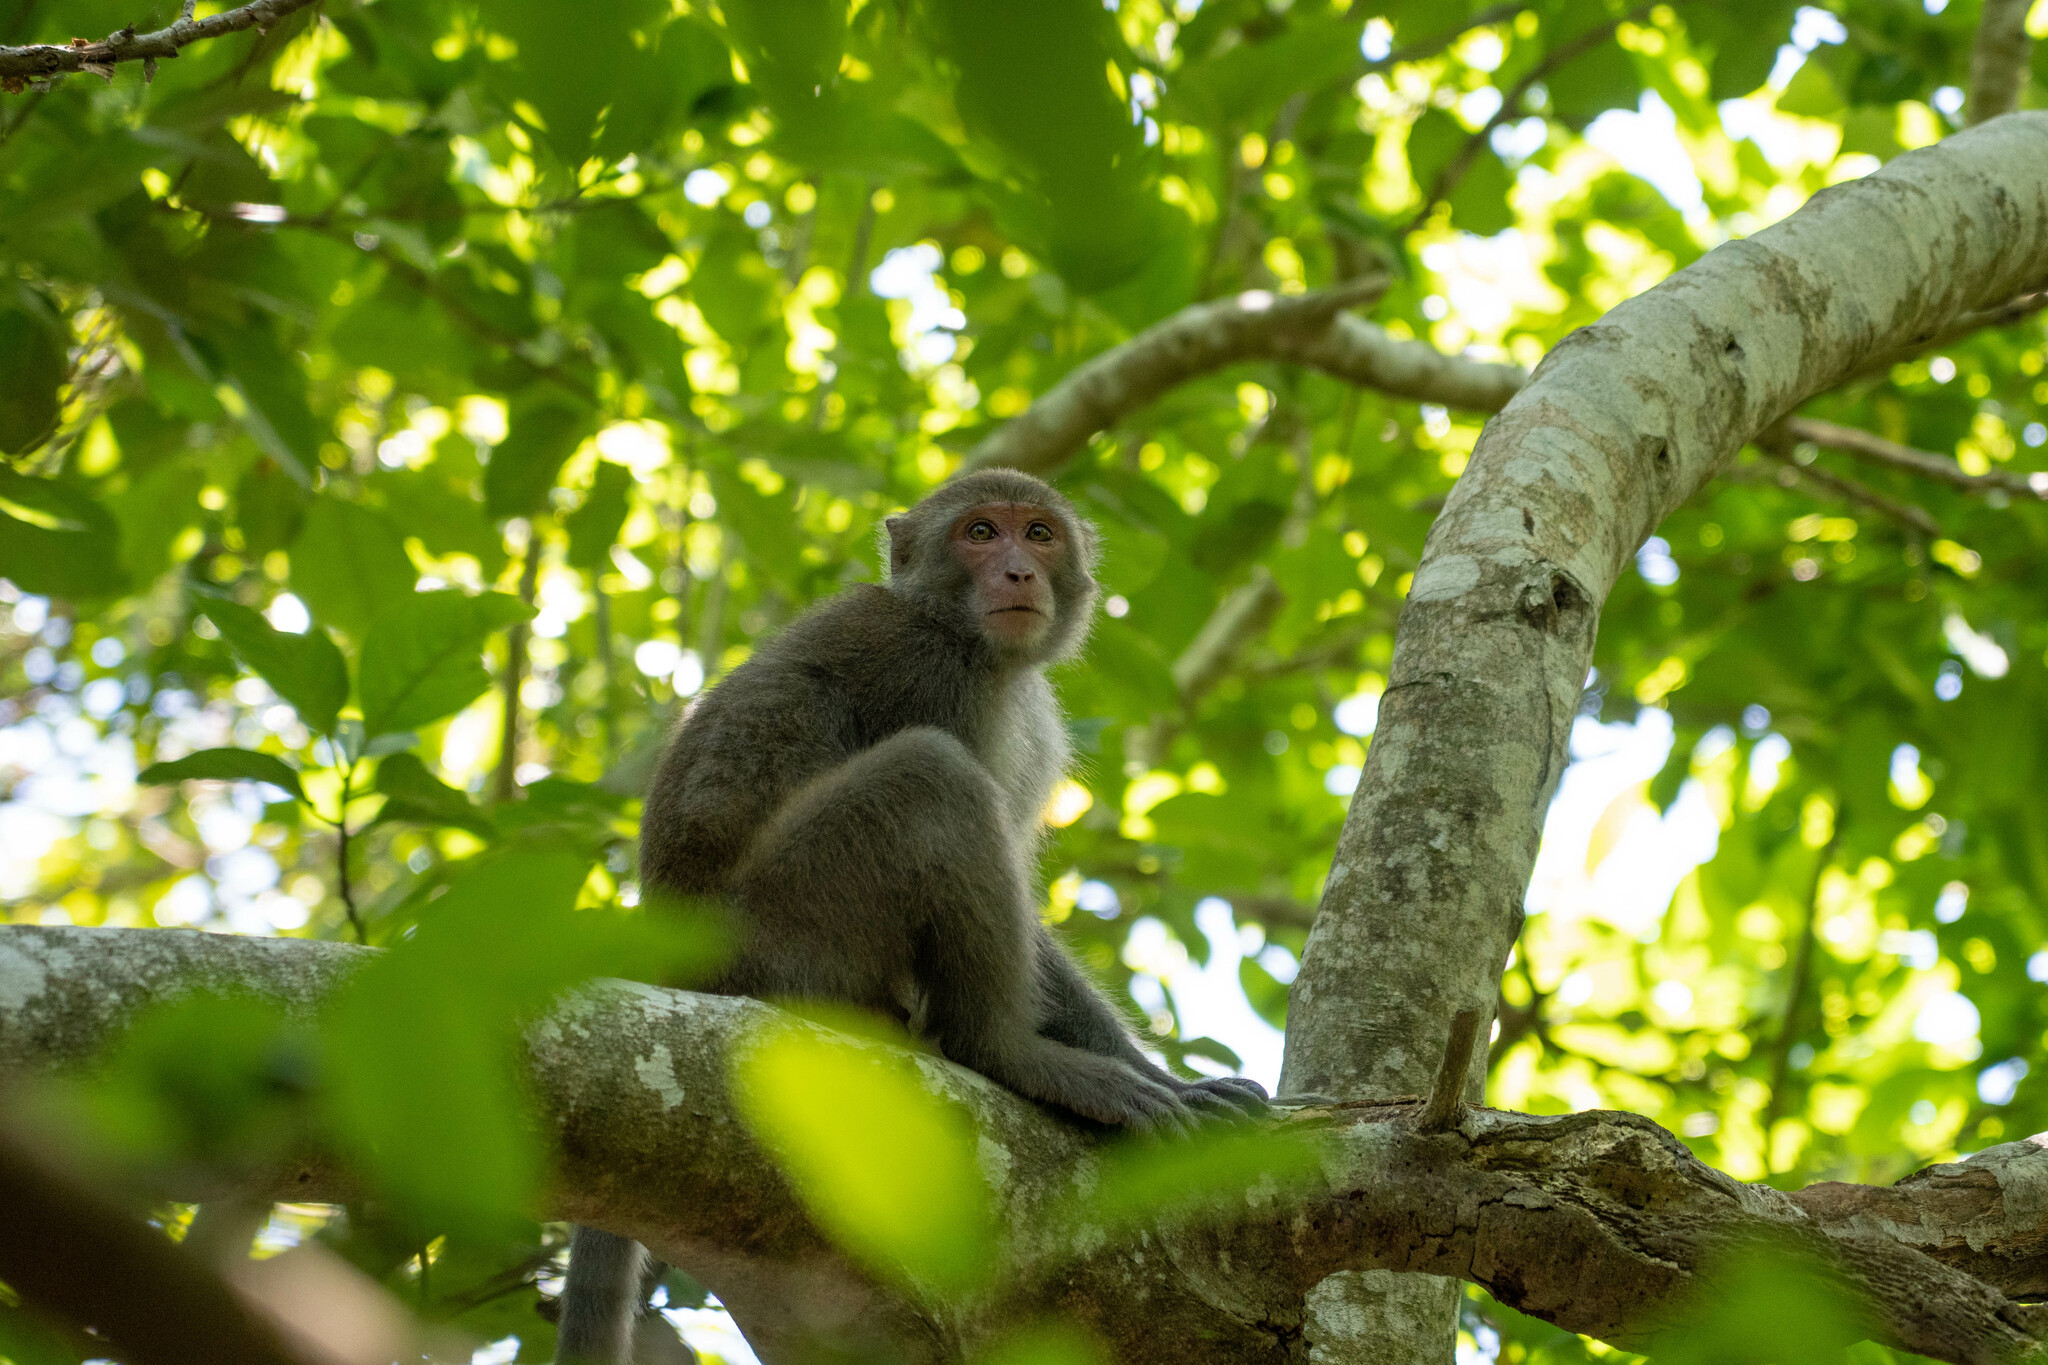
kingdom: Animalia
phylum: Chordata
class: Mammalia
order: Primates
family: Cercopithecidae
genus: Macaca
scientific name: Macaca cyclopis
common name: Formosan rock macaque
